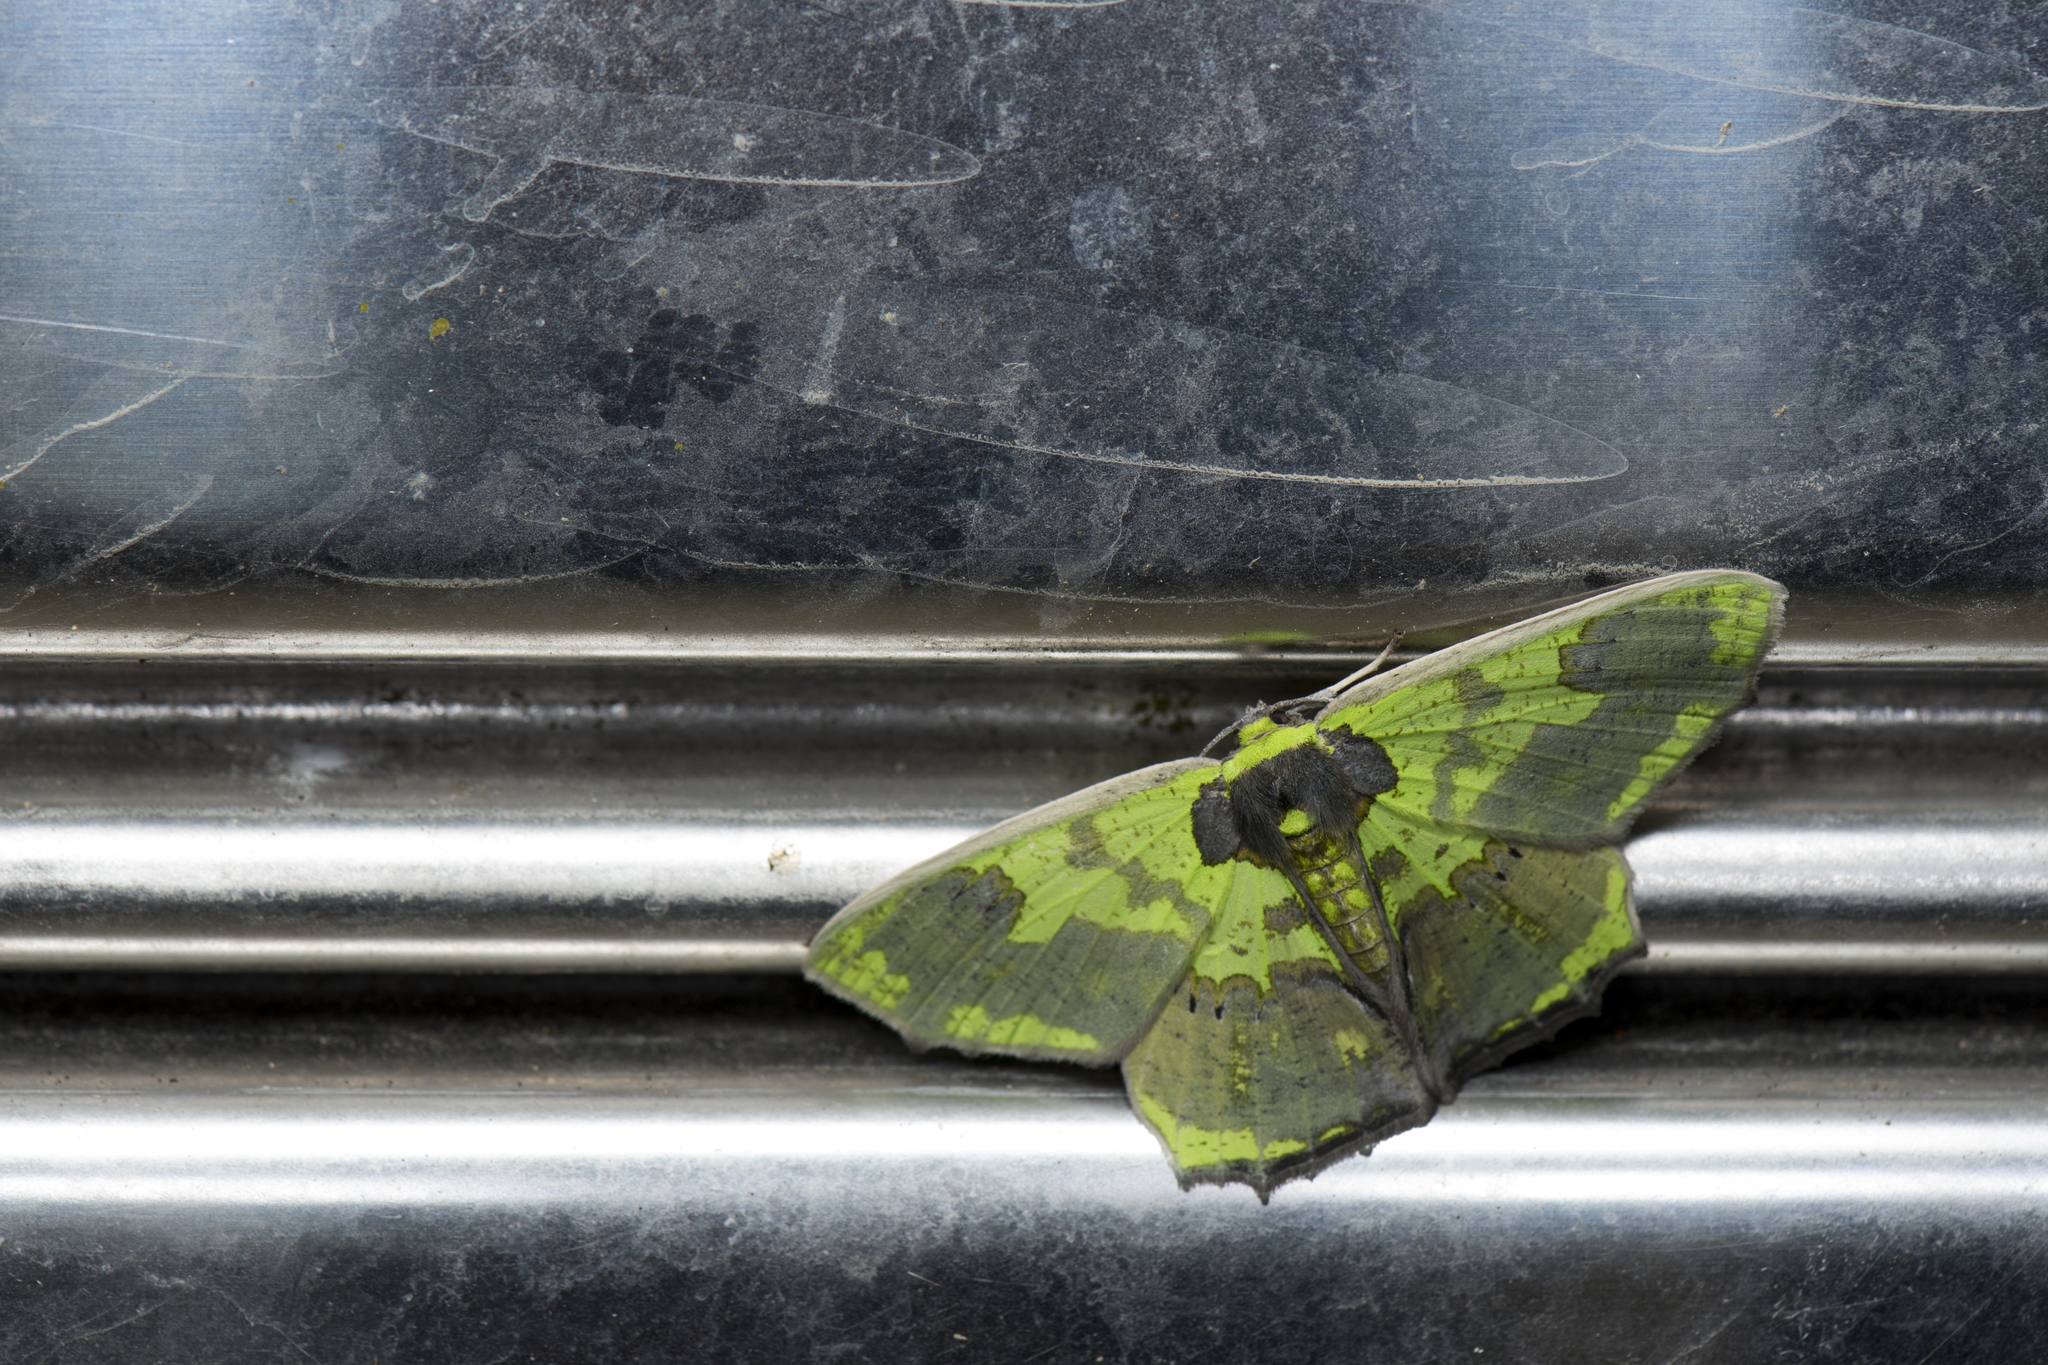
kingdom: Animalia
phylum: Arthropoda
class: Insecta
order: Lepidoptera
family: Geometridae
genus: Agathia
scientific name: Agathia diversiformis
